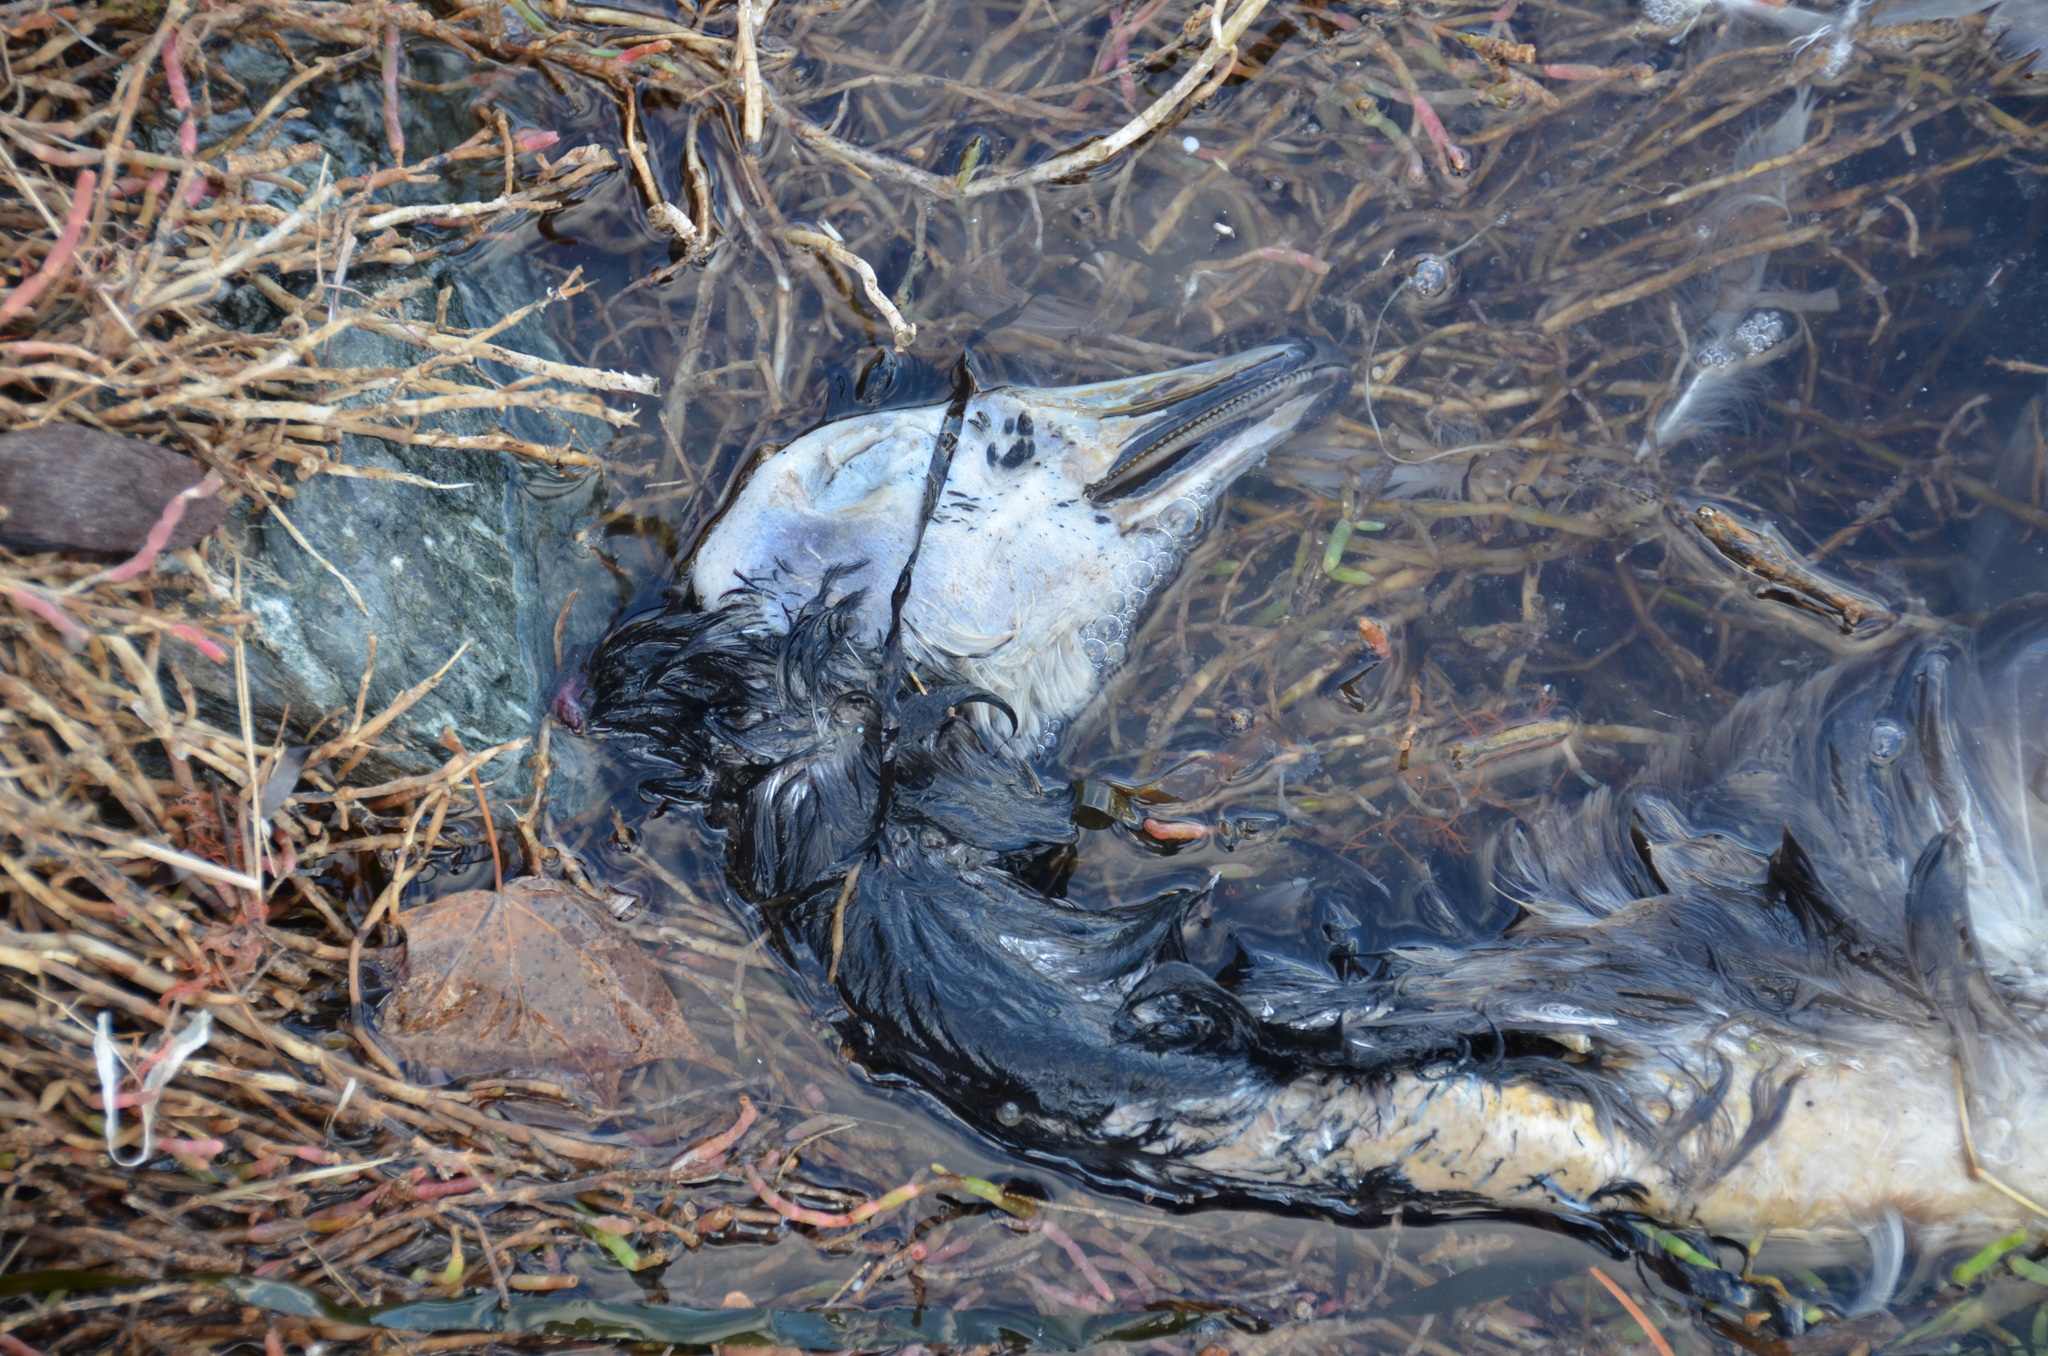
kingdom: Animalia
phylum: Chordata
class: Aves
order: Anseriformes
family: Anatidae
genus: Branta
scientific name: Branta canadensis
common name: Canada goose
